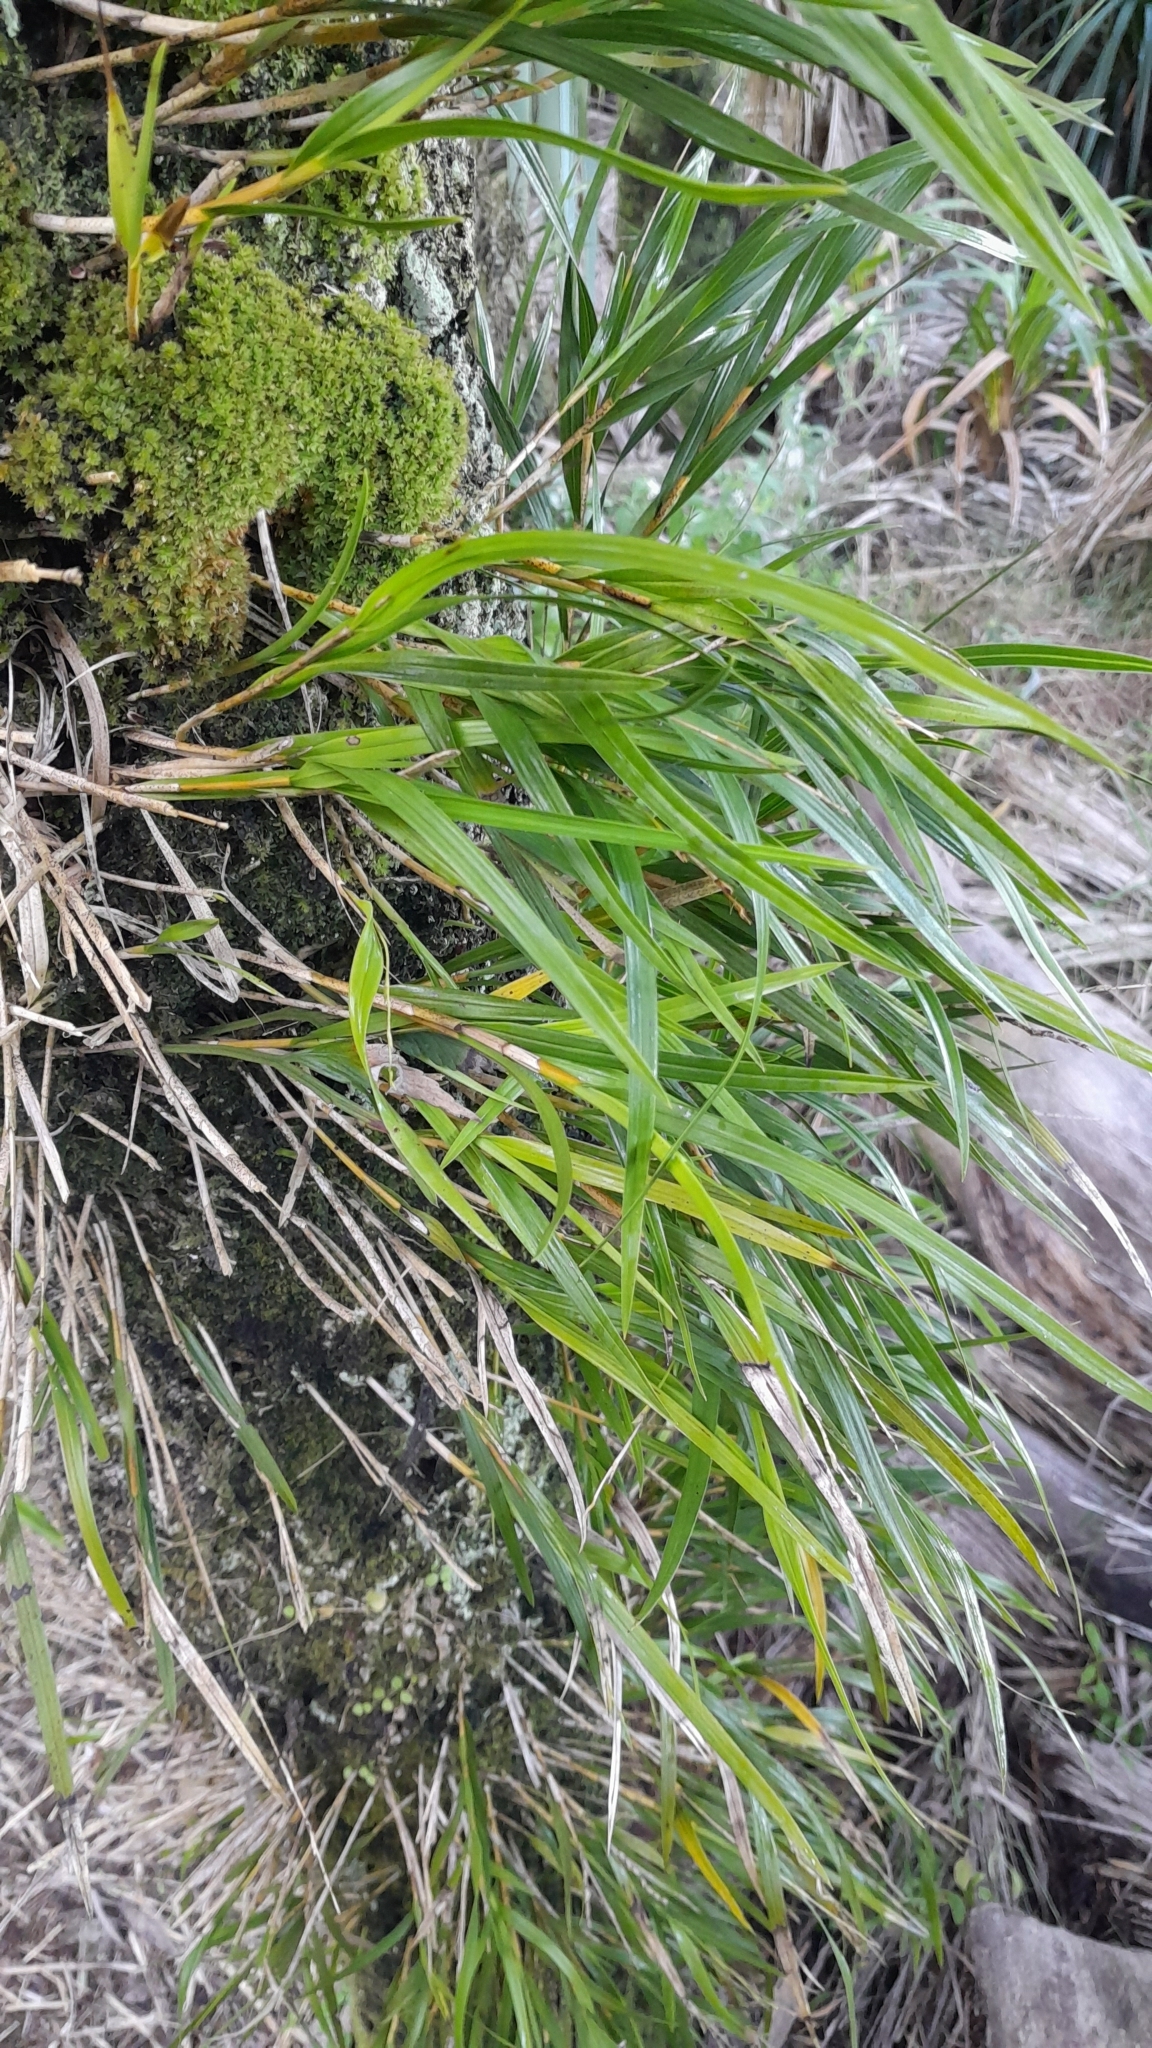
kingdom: Plantae
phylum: Tracheophyta
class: Liliopsida
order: Asparagales
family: Orchidaceae
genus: Earina
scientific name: Earina mucronata
